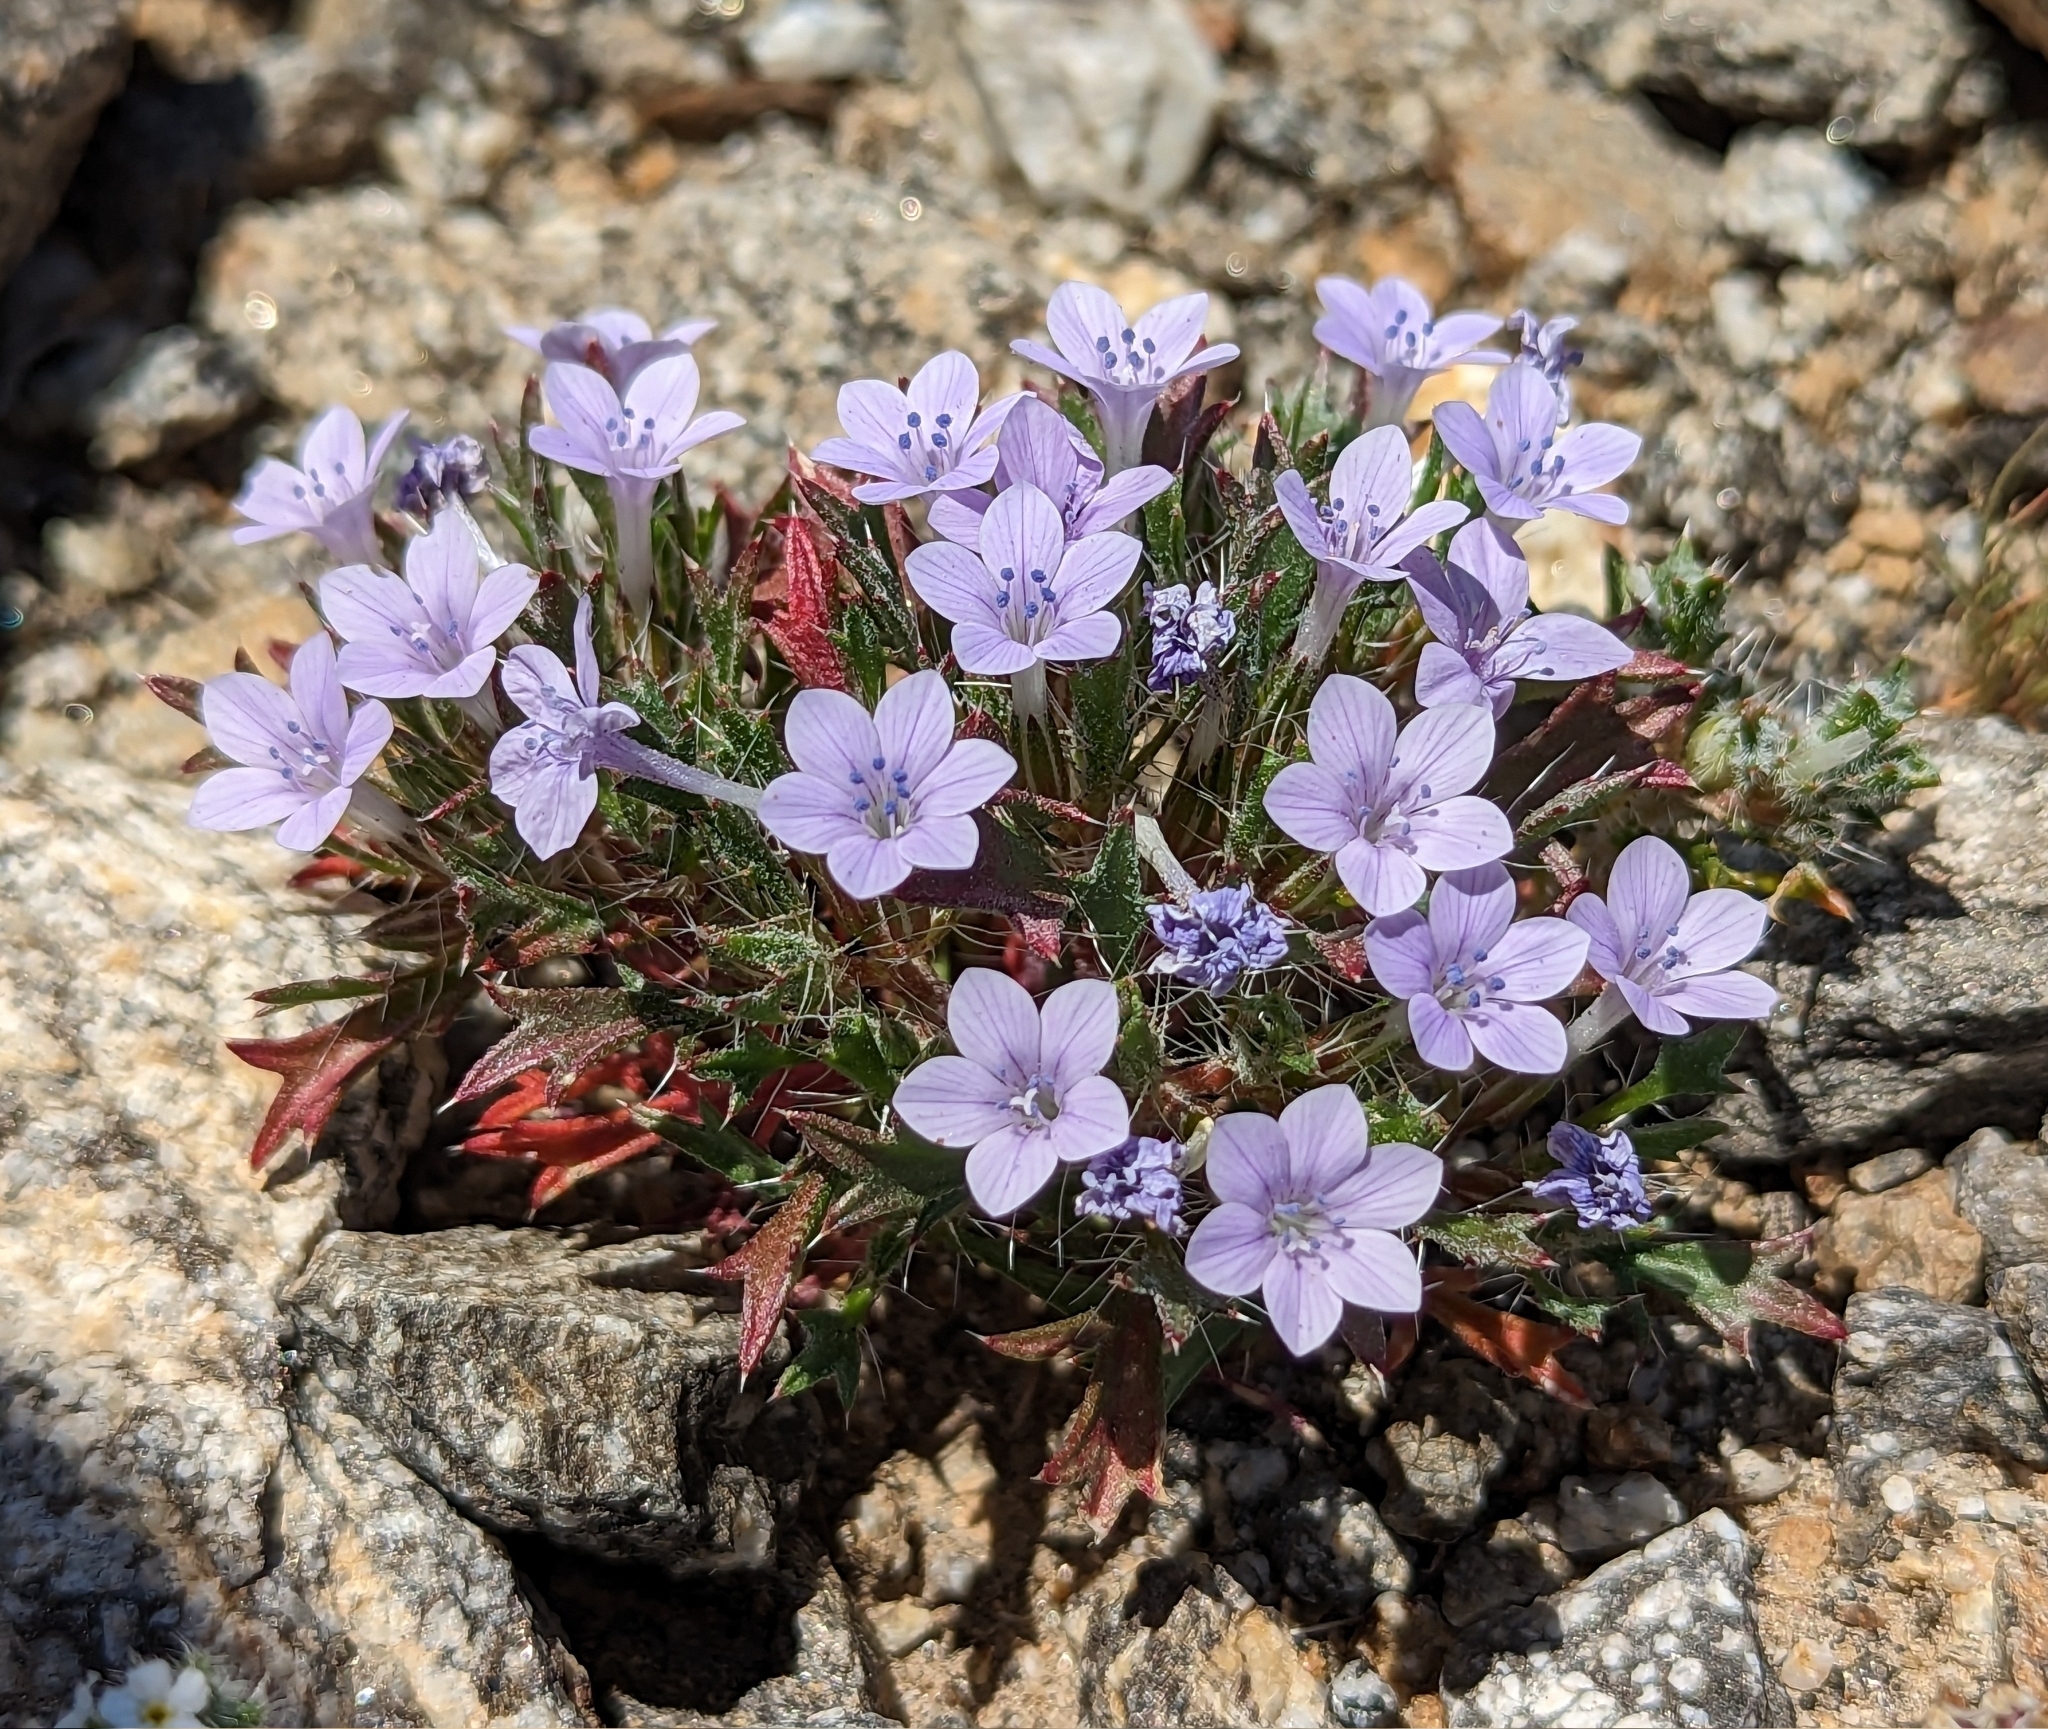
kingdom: Plantae
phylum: Tracheophyta
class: Magnoliopsida
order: Ericales
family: Polemoniaceae
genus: Langloisia
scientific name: Langloisia setosissima
